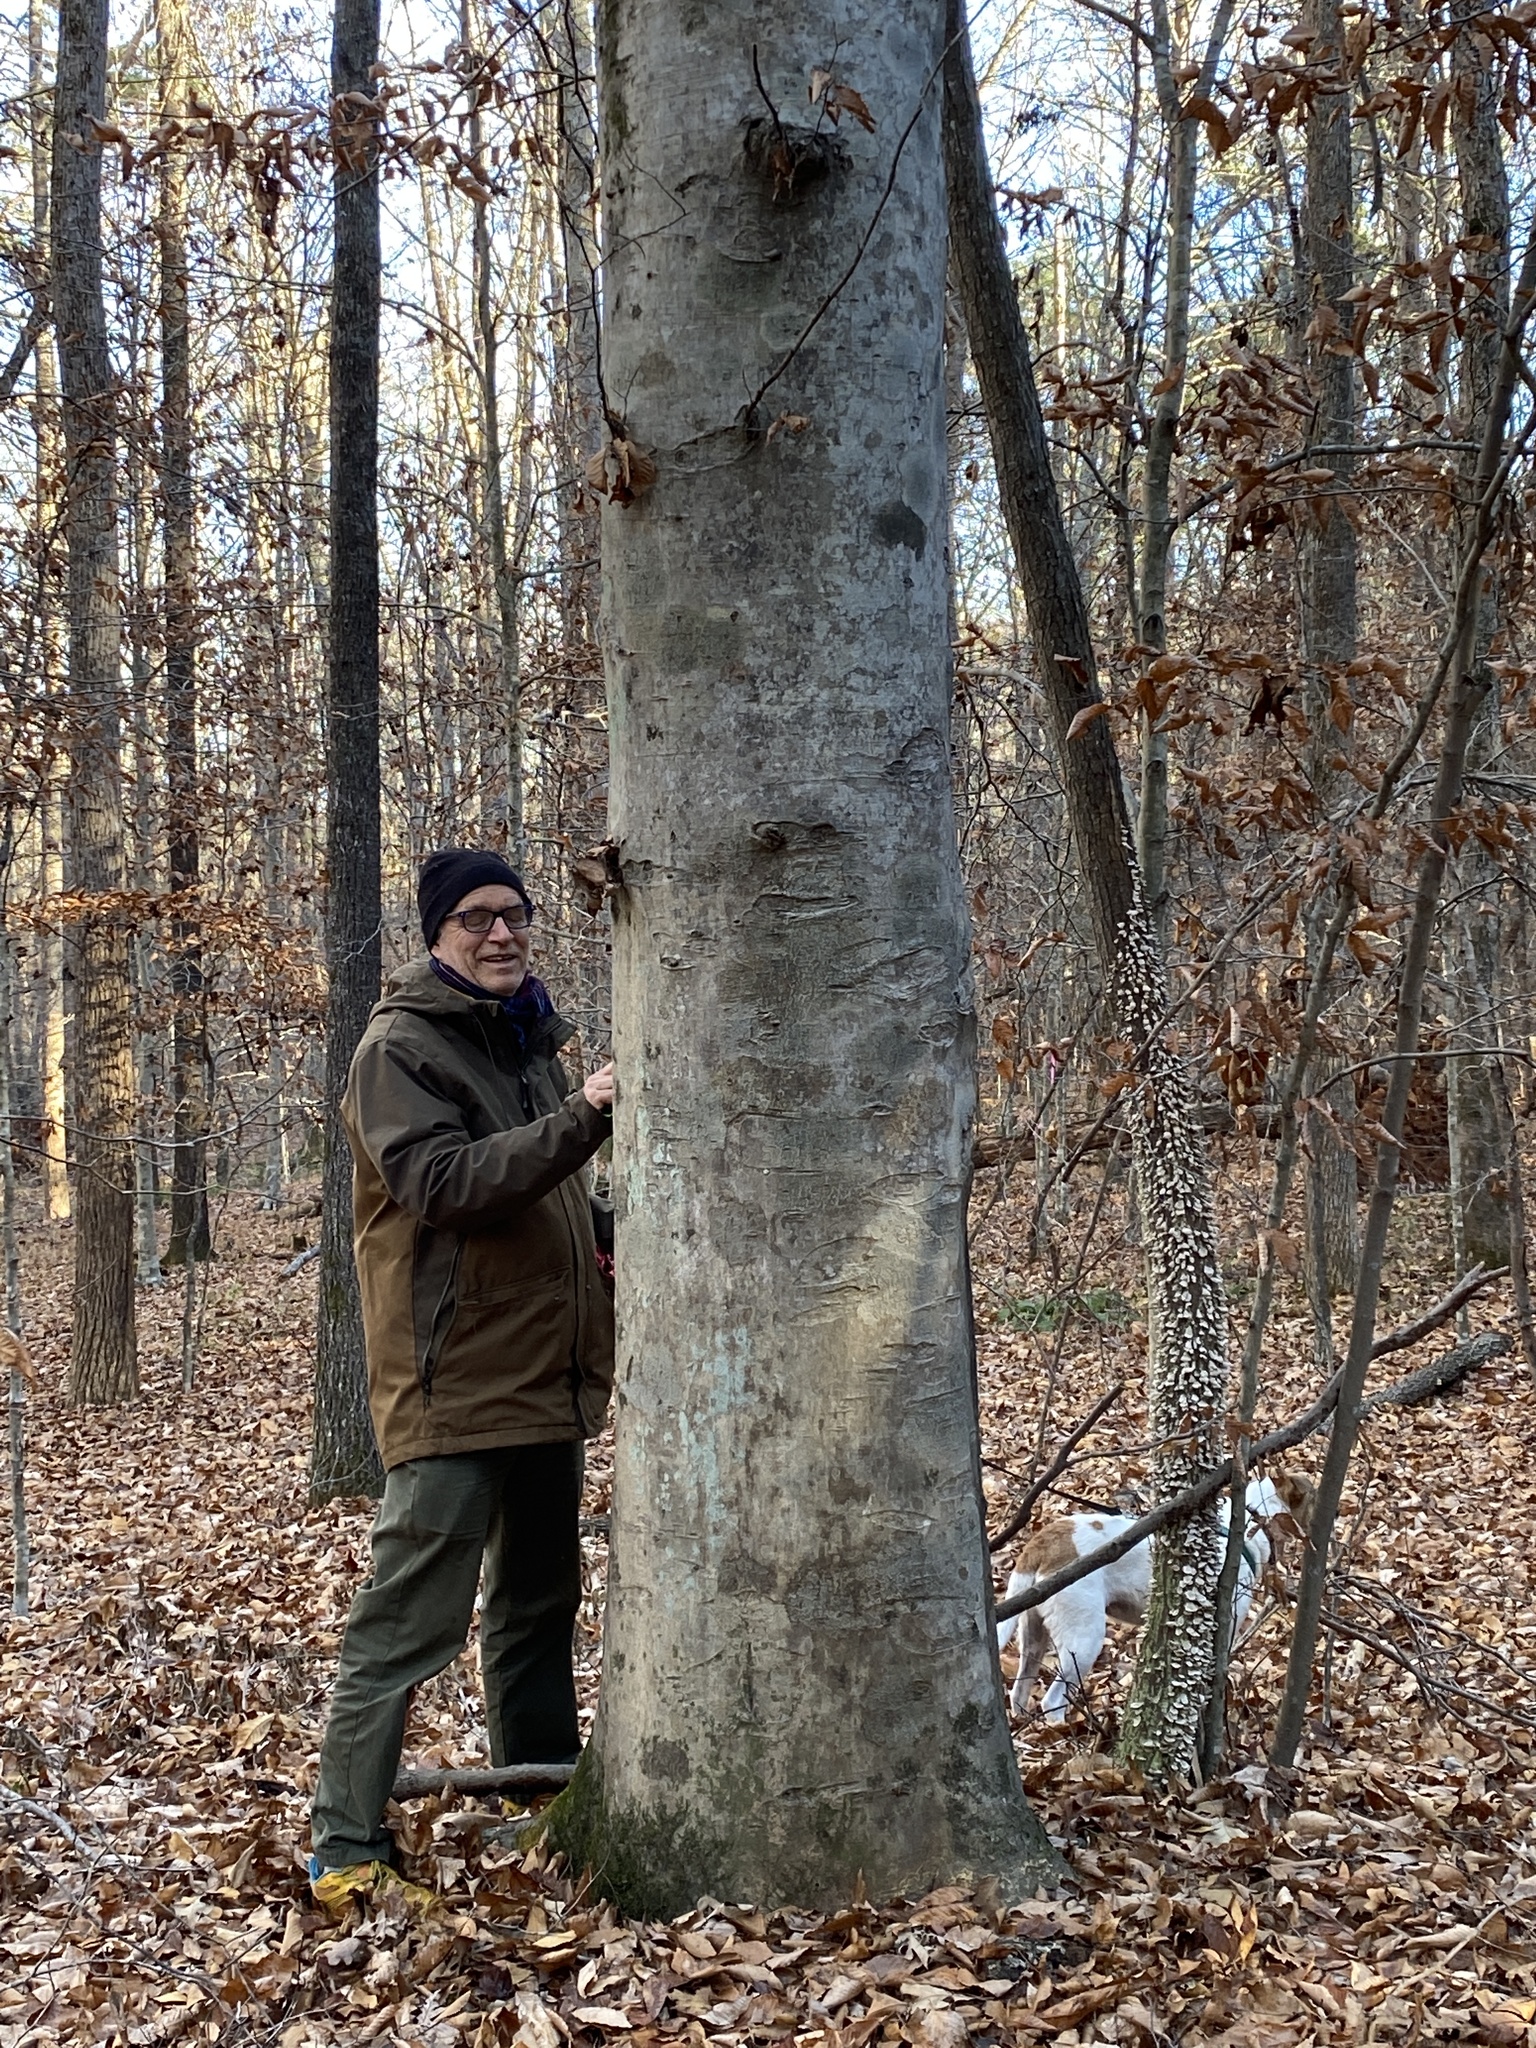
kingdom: Plantae
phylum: Tracheophyta
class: Magnoliopsida
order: Fagales
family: Fagaceae
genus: Fagus
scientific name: Fagus grandifolia
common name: American beech
